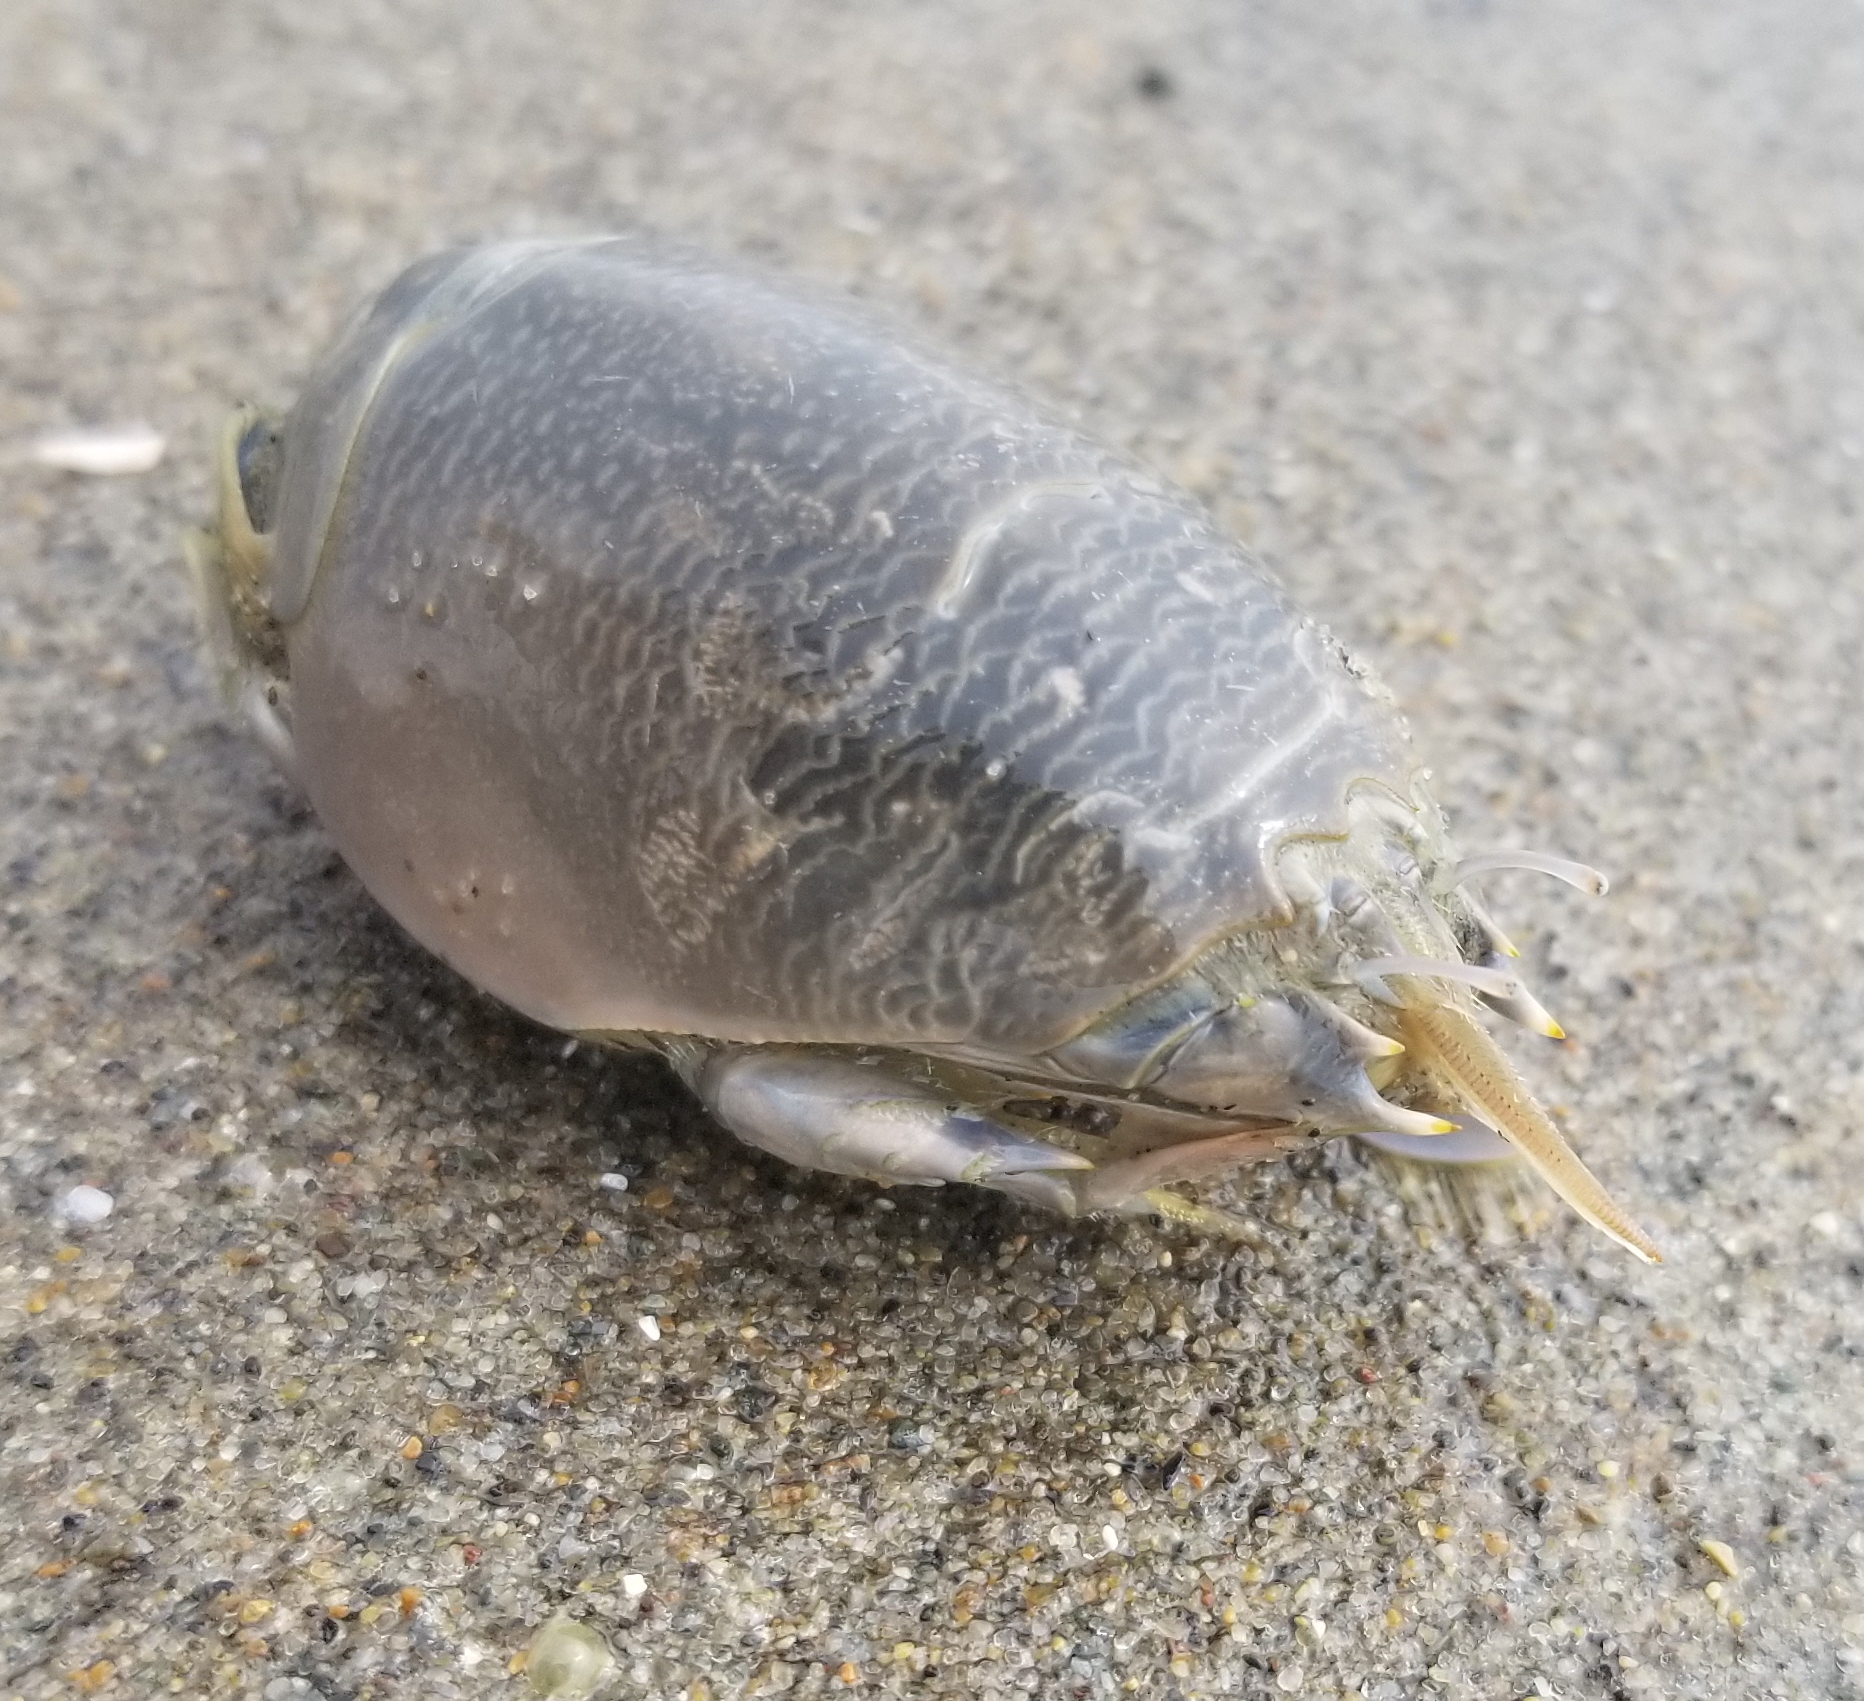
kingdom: Animalia
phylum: Arthropoda
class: Malacostraca
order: Decapoda
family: Hippidae
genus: Emerita
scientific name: Emerita analoga
